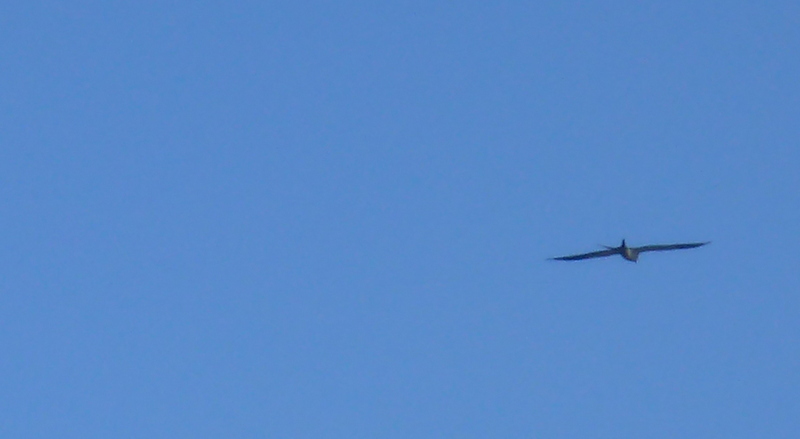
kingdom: Animalia
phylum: Chordata
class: Aves
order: Accipitriformes
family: Accipitridae
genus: Elanoides
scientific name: Elanoides forficatus
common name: Swallow-tailed kite
